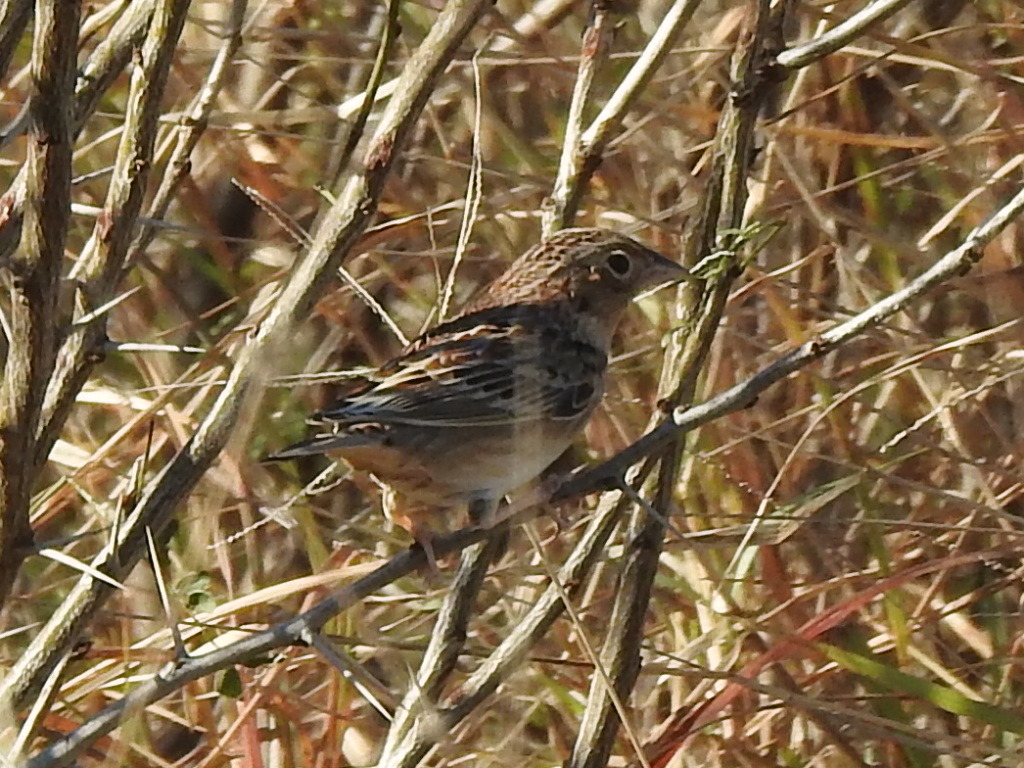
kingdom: Animalia
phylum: Chordata
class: Aves
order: Passeriformes
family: Passerellidae
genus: Ammodramus
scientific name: Ammodramus savannarum
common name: Grasshopper sparrow
